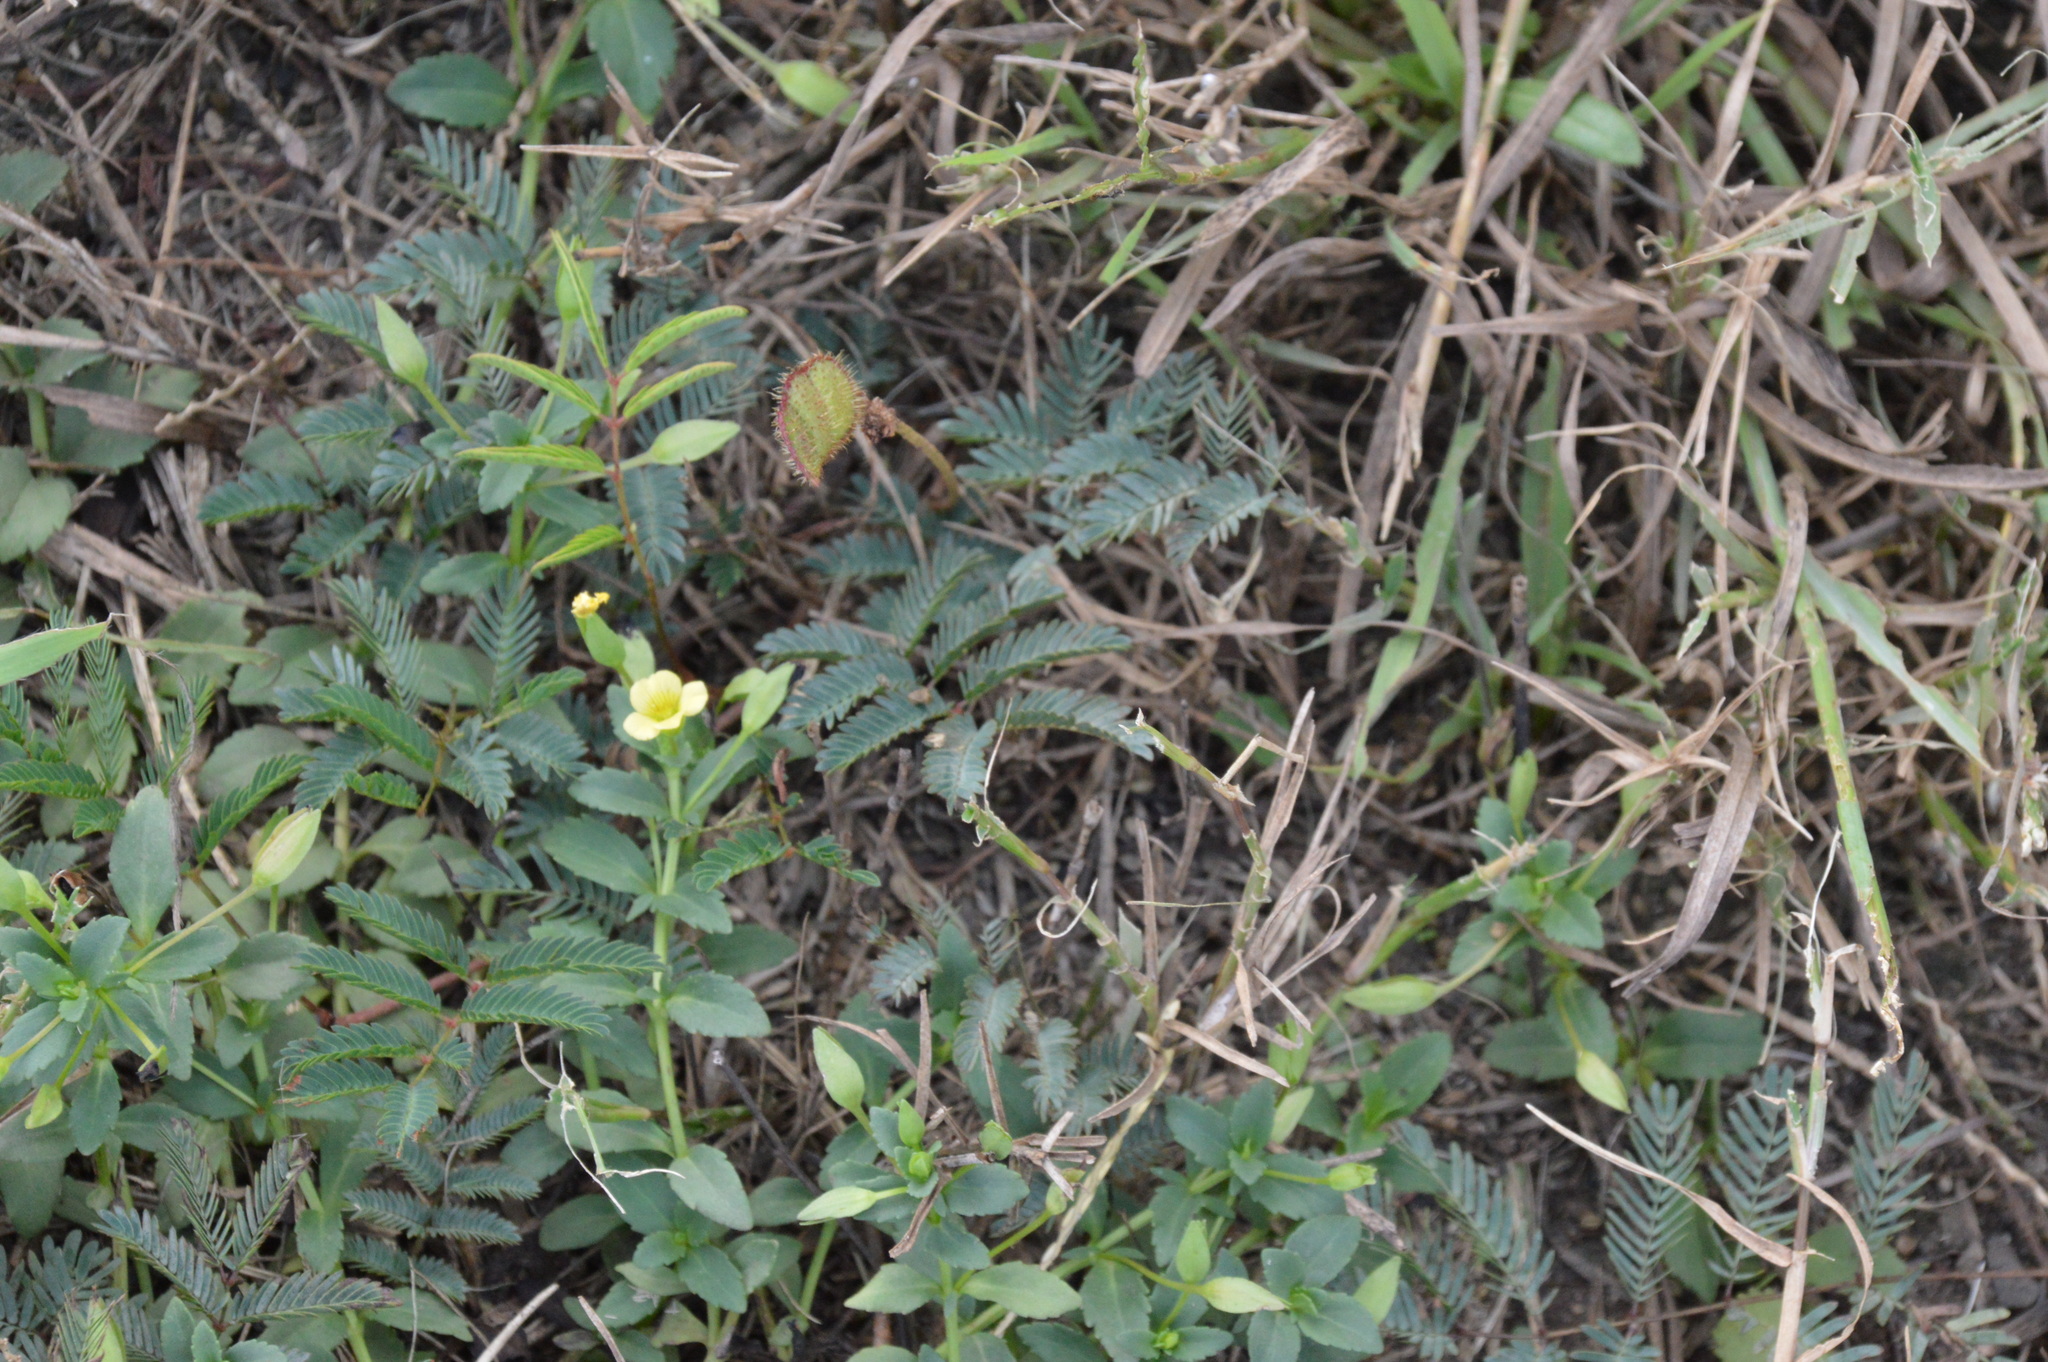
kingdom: Plantae
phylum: Tracheophyta
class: Magnoliopsida
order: Lamiales
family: Plantaginaceae
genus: Mecardonia
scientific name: Mecardonia procumbens
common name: Baby jump-up
